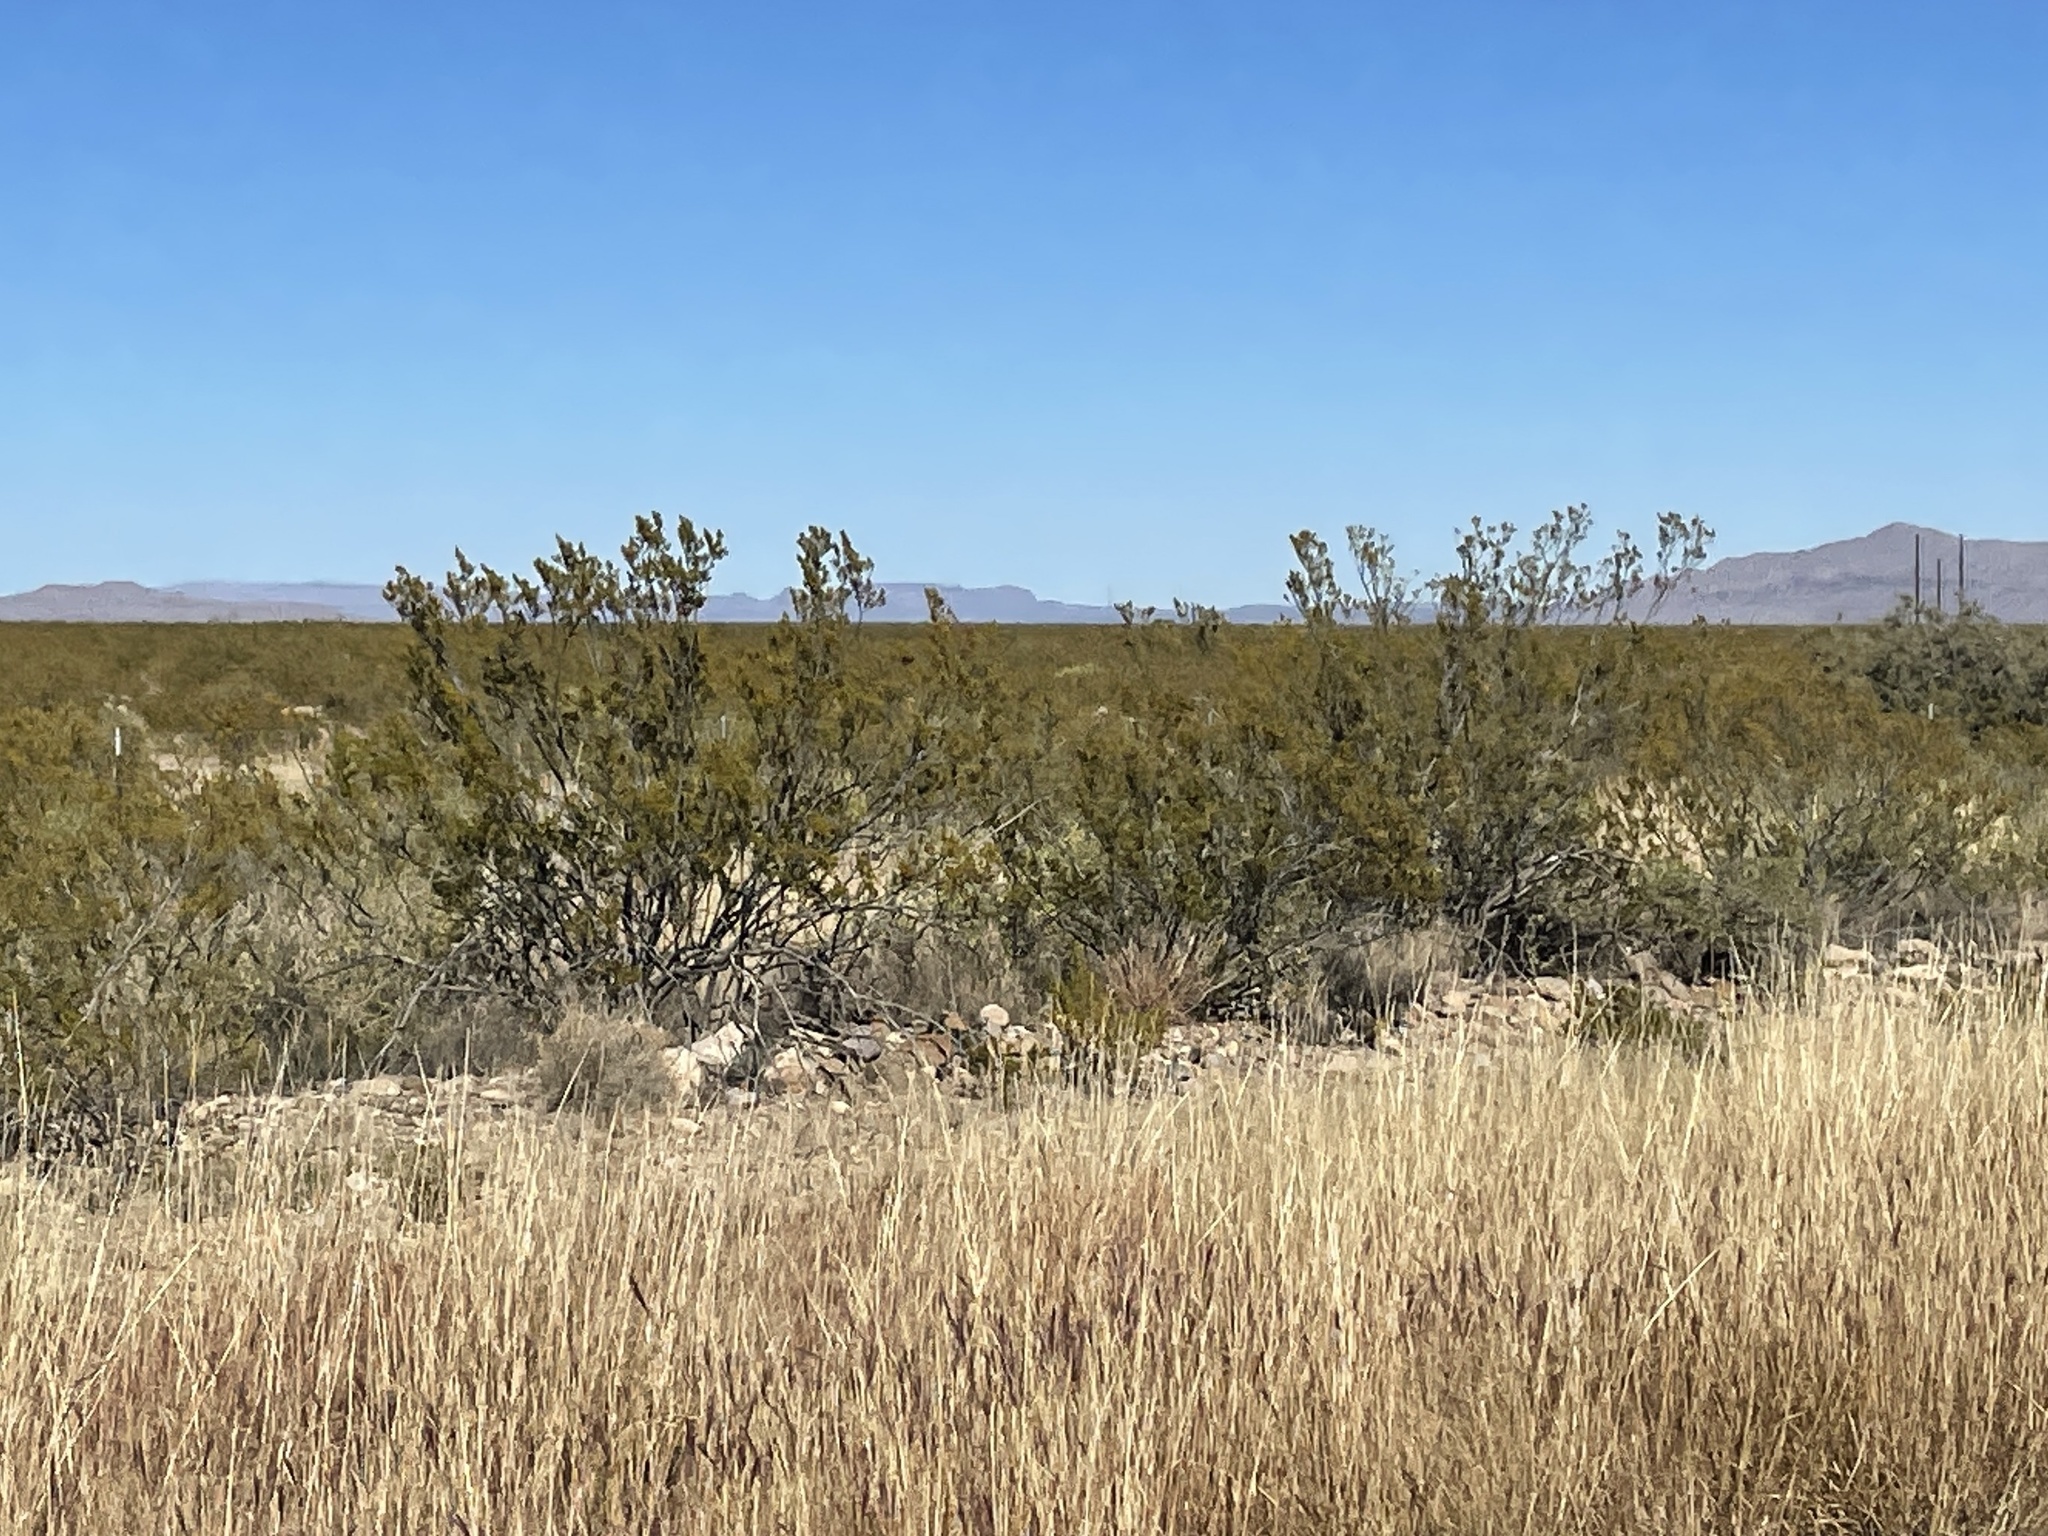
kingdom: Plantae
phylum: Tracheophyta
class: Magnoliopsida
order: Zygophyllales
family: Zygophyllaceae
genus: Larrea
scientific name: Larrea tridentata
